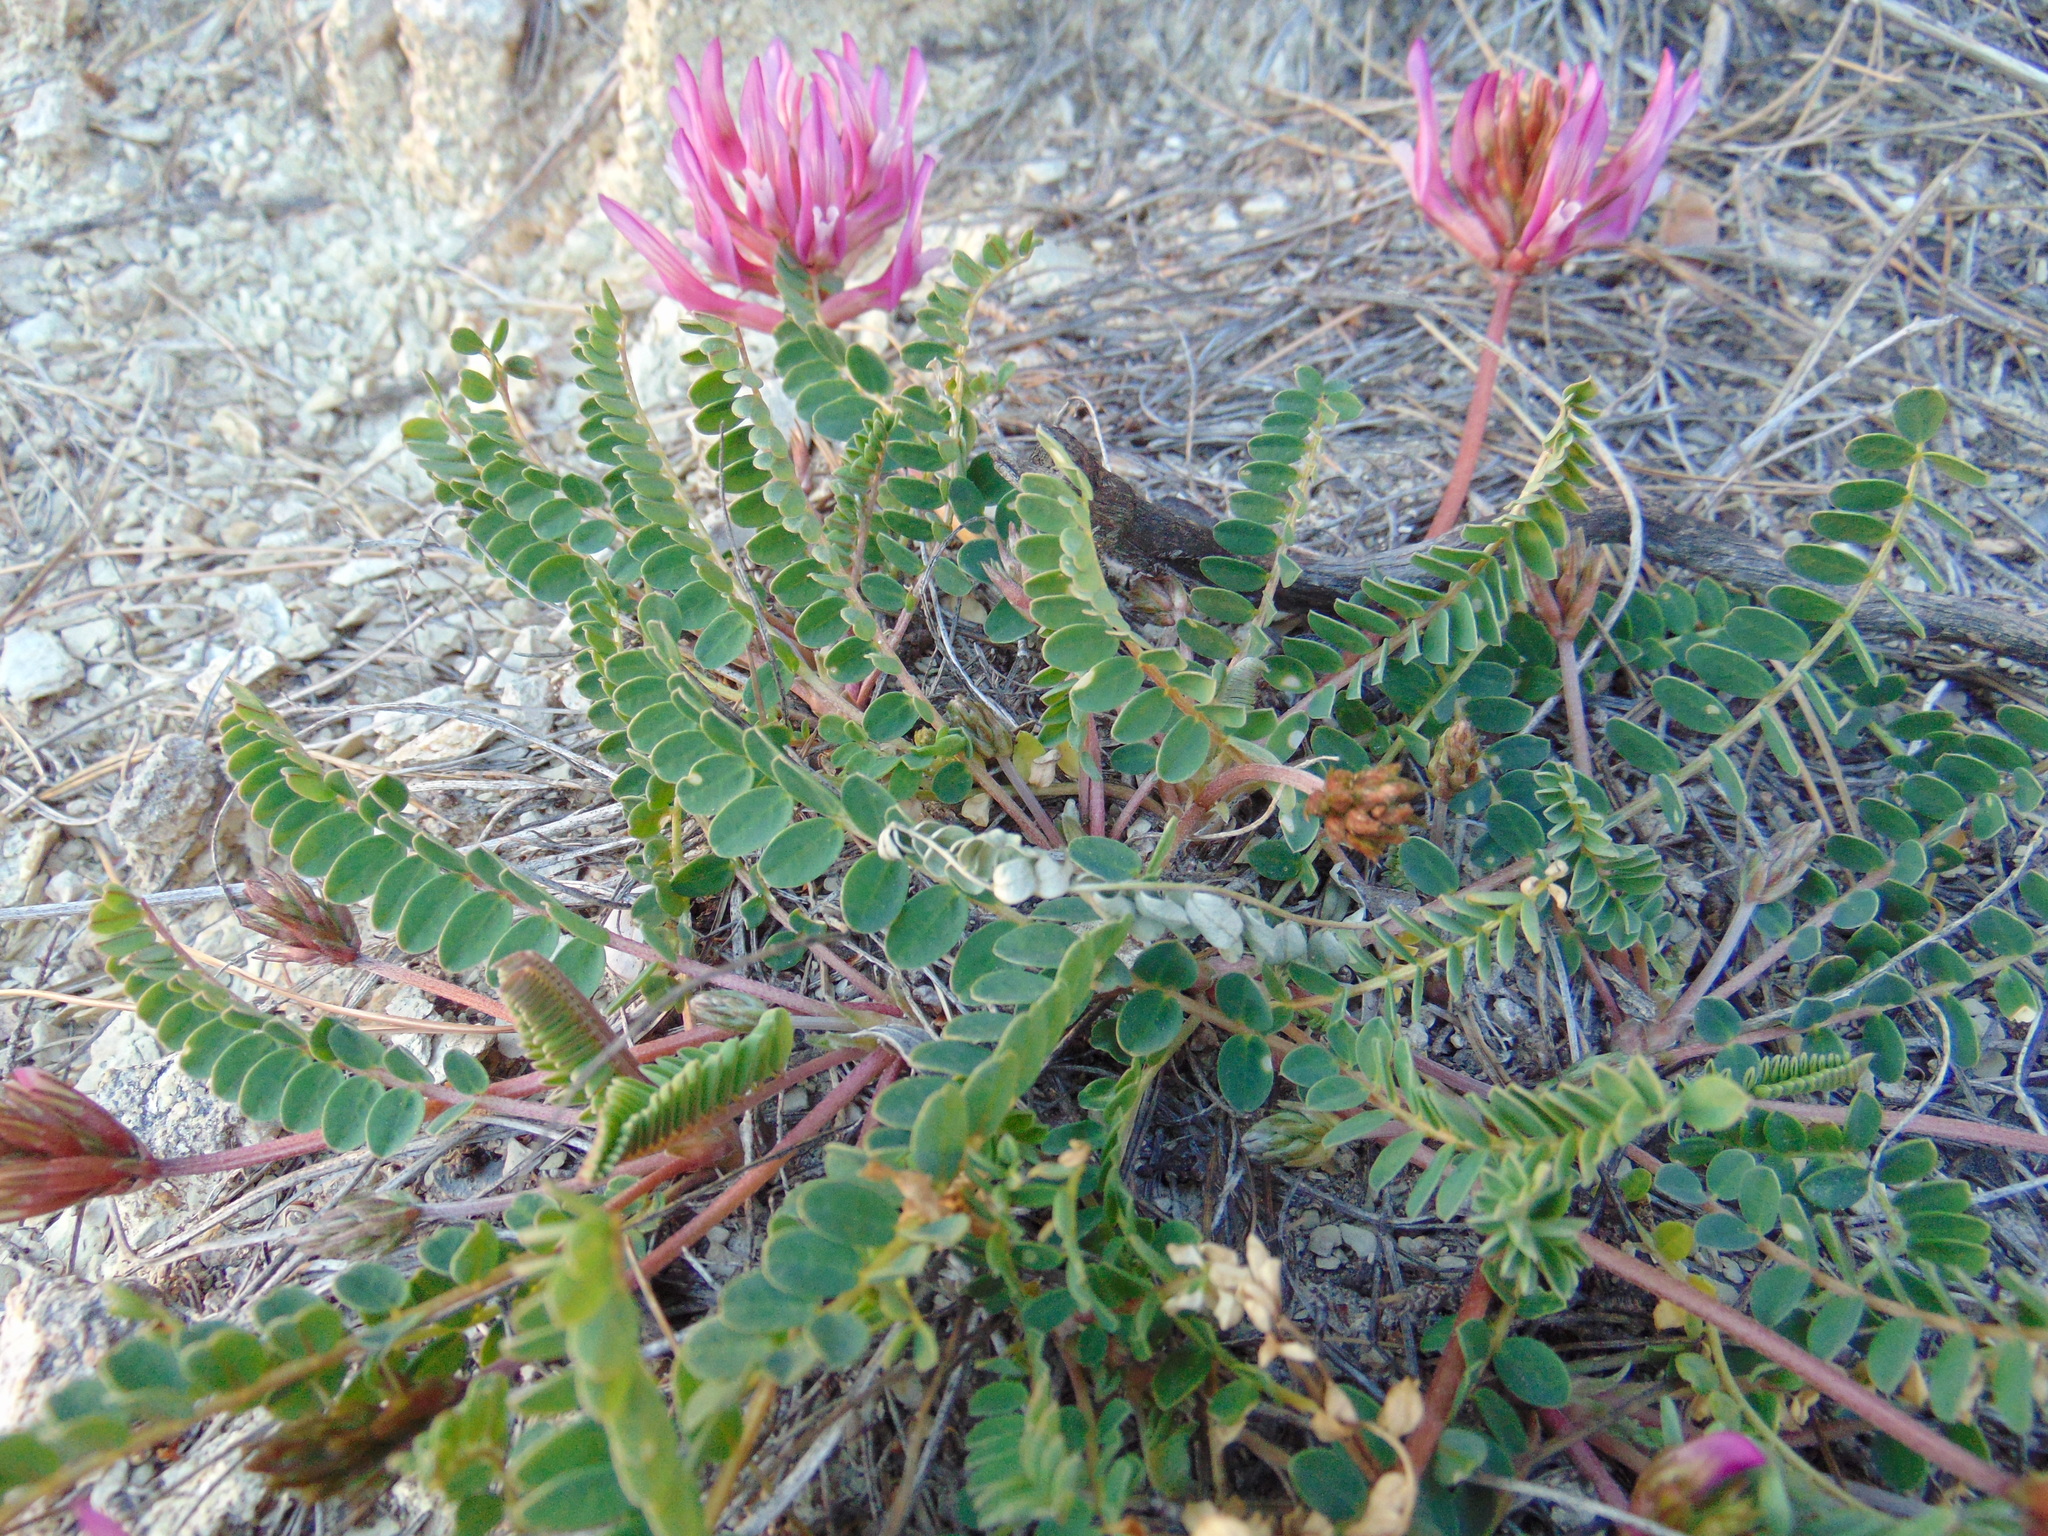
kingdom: Plantae
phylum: Tracheophyta
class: Magnoliopsida
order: Fabales
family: Fabaceae
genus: Astragalus
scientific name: Astragalus monspessulanus
